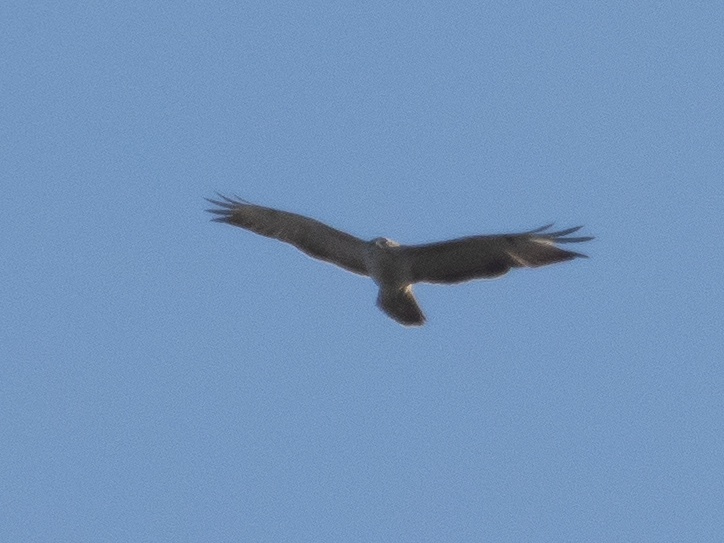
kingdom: Animalia
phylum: Chordata
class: Aves
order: Accipitriformes
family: Accipitridae
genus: Buteo
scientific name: Buteo buteo
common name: Common buzzard
